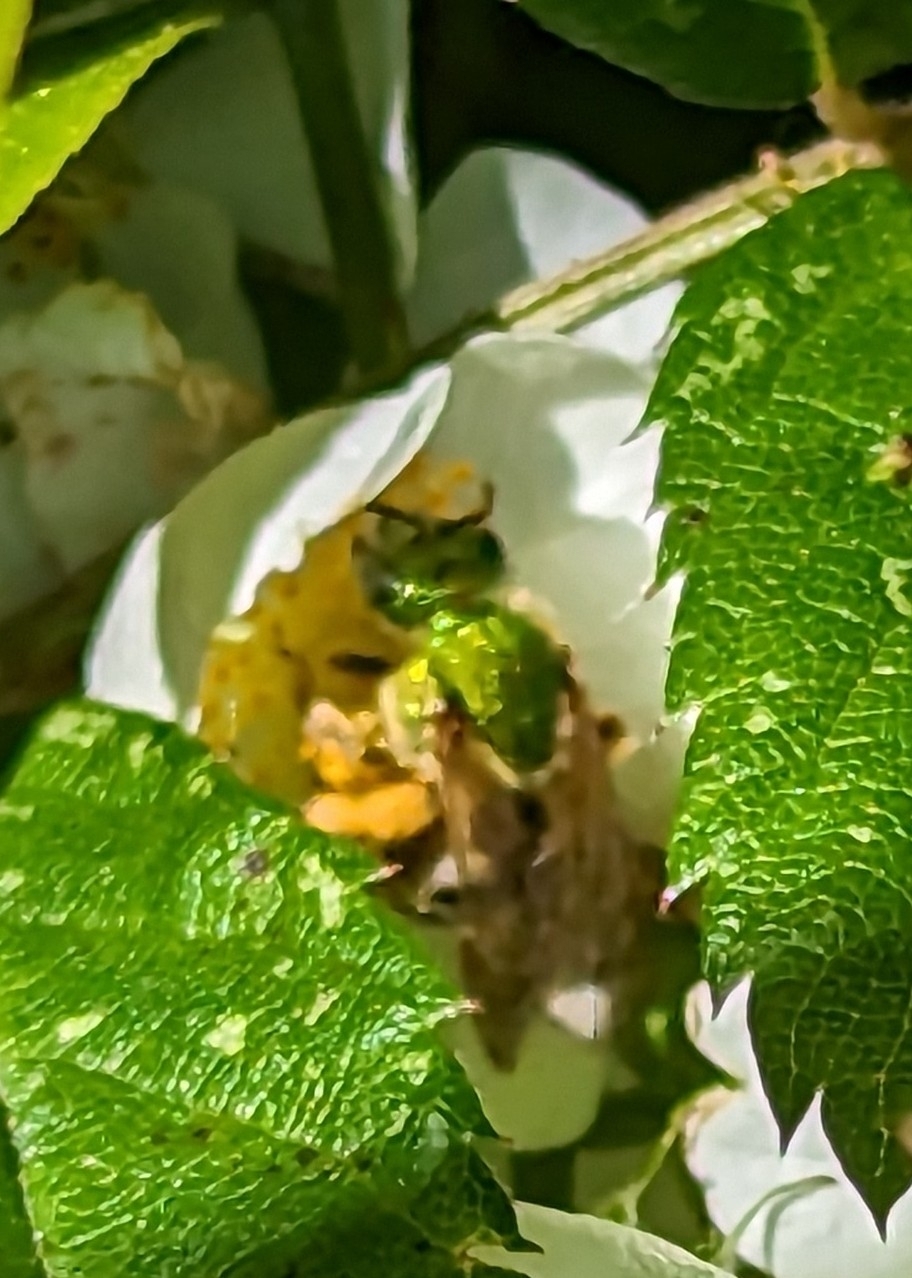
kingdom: Animalia
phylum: Arthropoda
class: Insecta
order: Hymenoptera
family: Halictidae
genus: Agapostemon
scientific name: Agapostemon virescens
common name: Bicolored striped sweat bee
